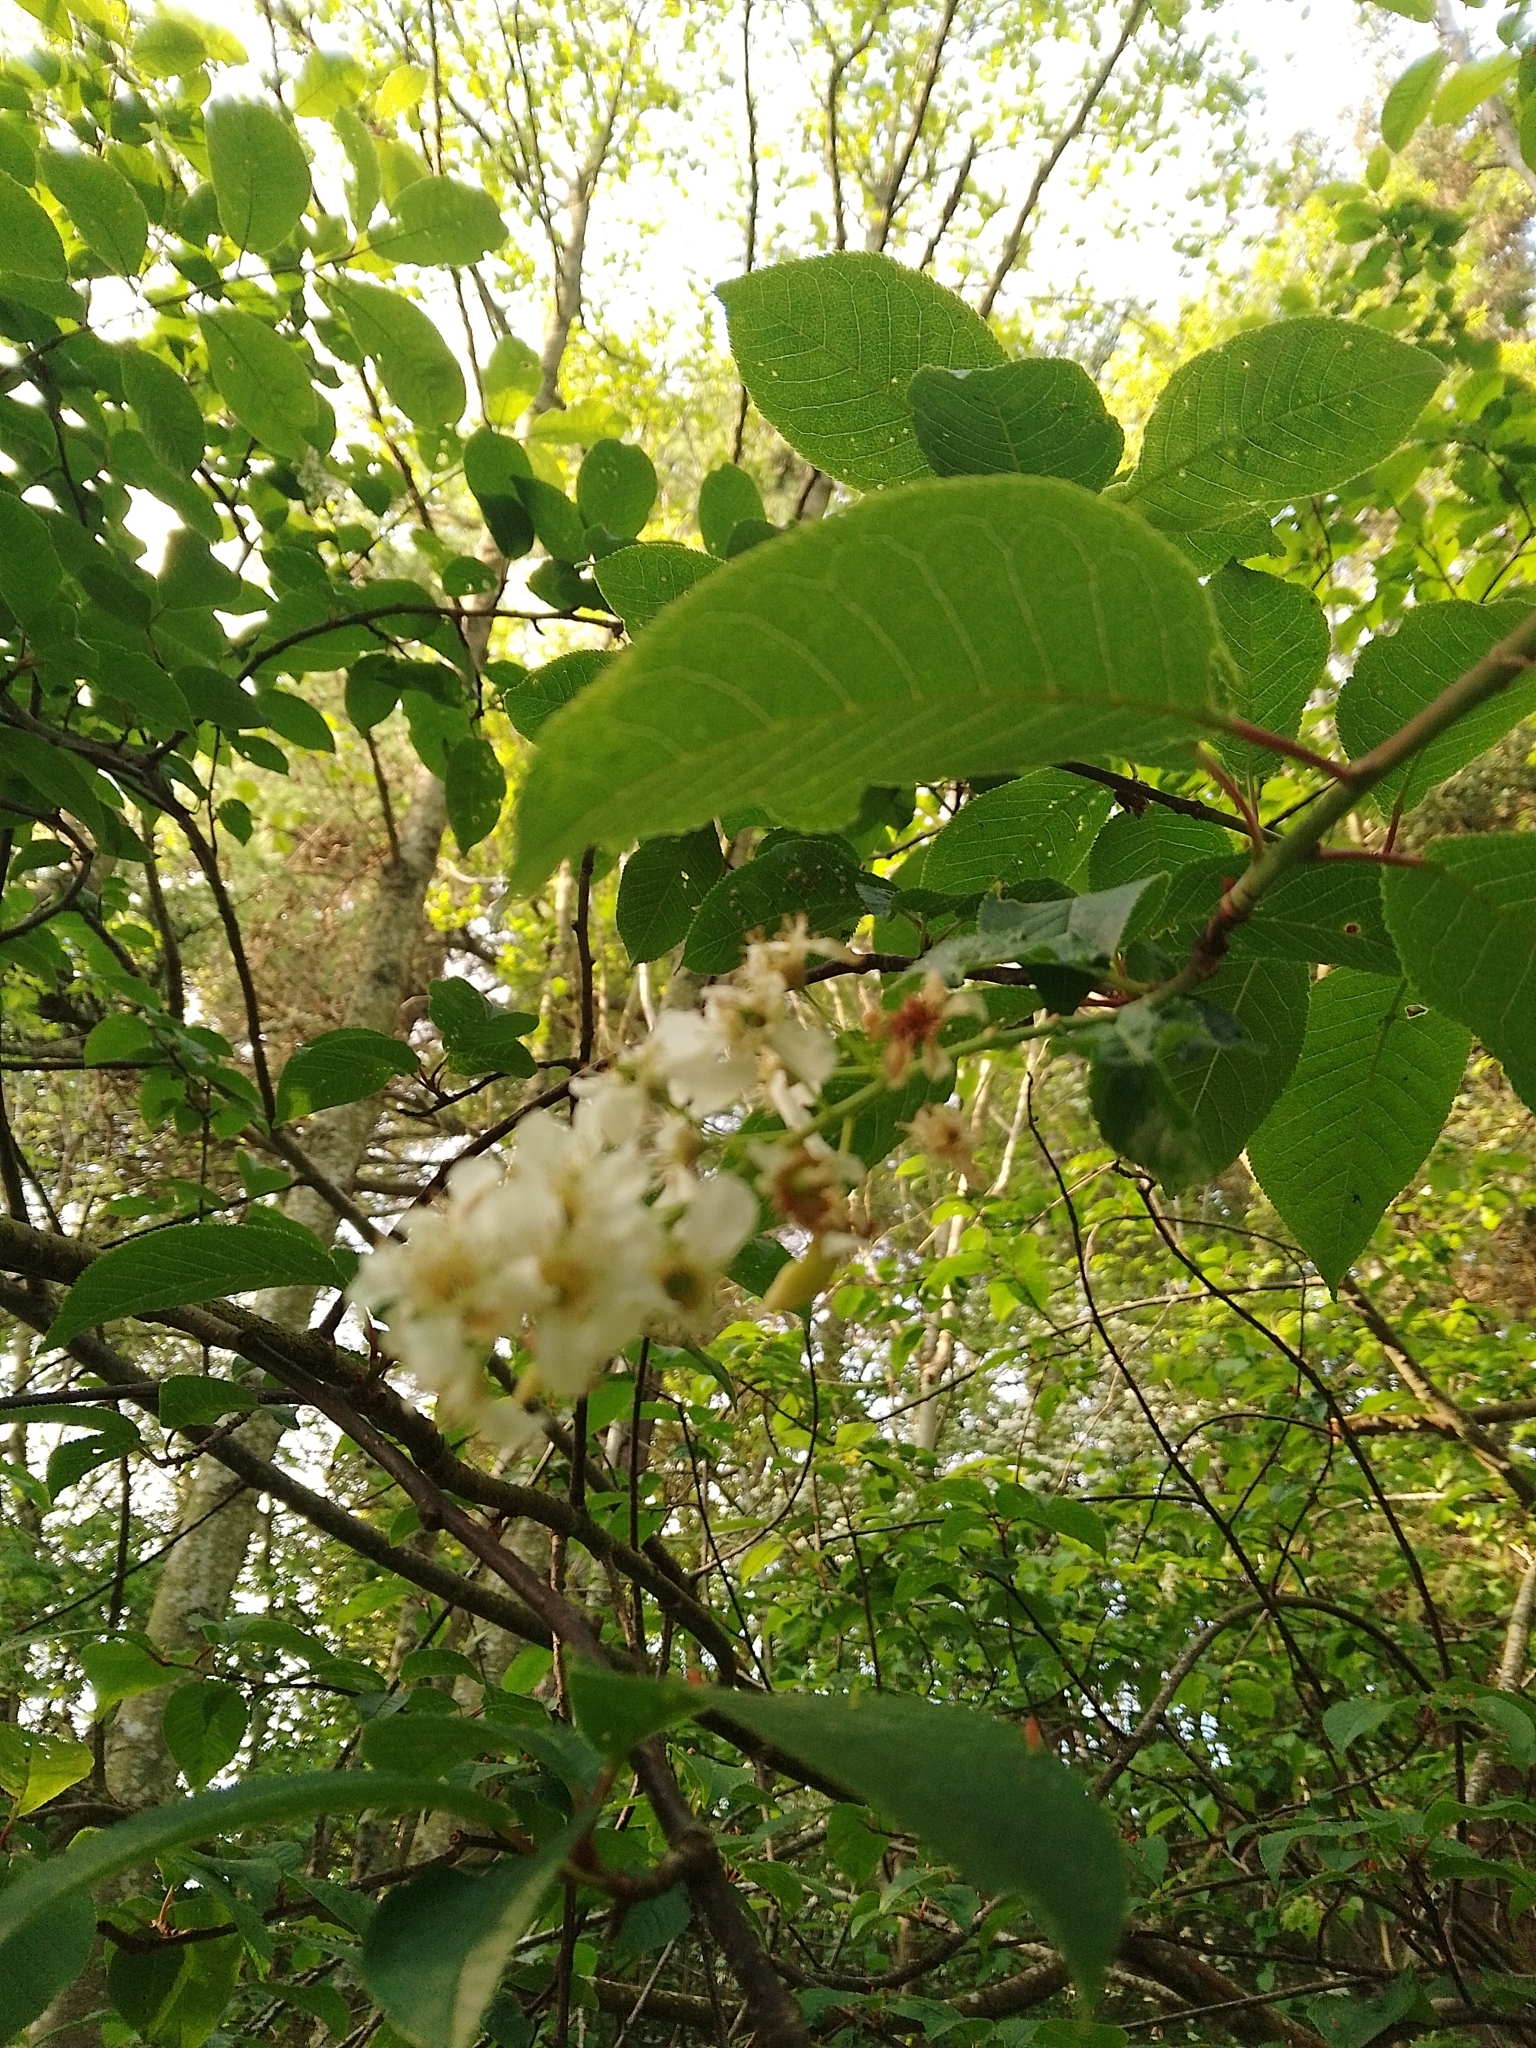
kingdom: Fungi
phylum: Ascomycota
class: Taphrinomycetes
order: Taphrinales
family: Taphrinaceae
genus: Taphrina
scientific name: Taphrina padi
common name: Bird cherry pocket
